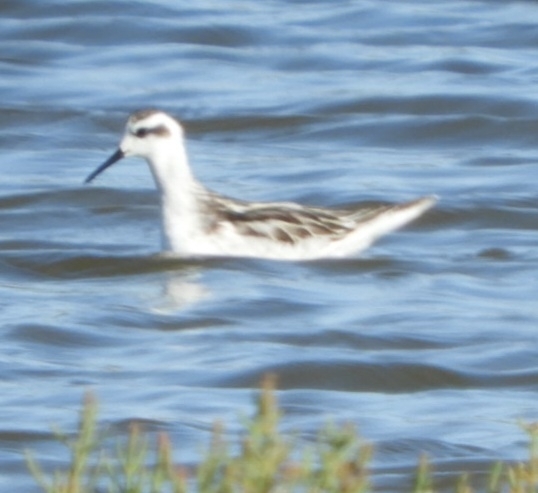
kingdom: Animalia
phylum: Chordata
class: Aves
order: Charadriiformes
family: Scolopacidae
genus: Phalaropus
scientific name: Phalaropus lobatus
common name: Red-necked phalarope
